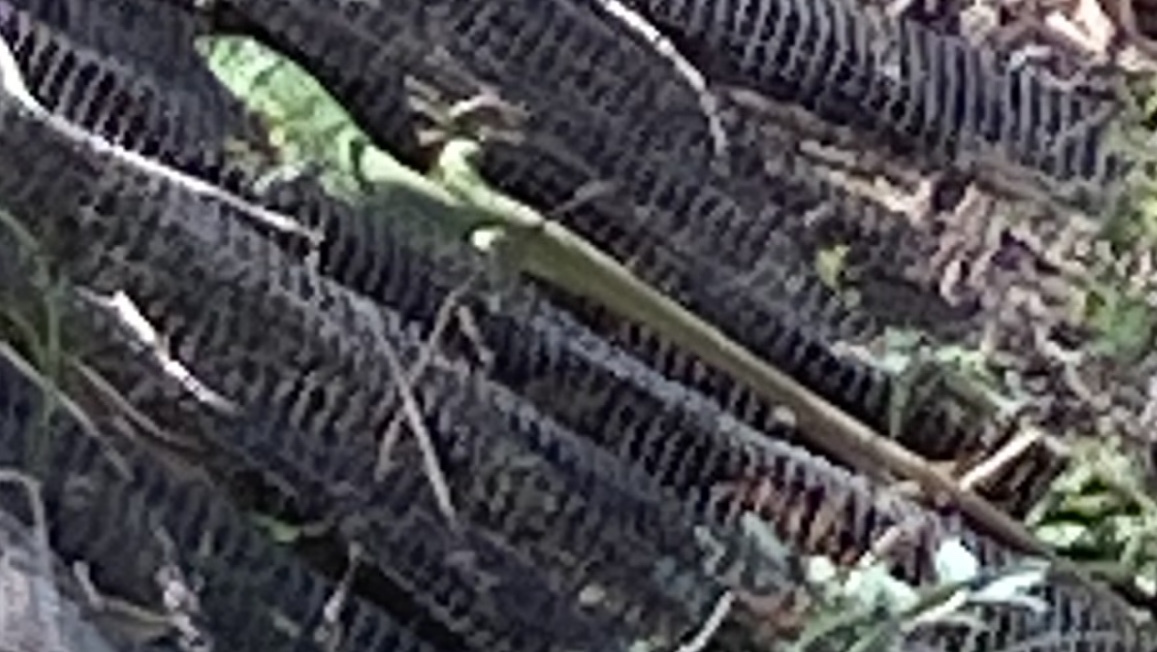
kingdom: Animalia
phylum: Chordata
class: Squamata
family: Lacertidae
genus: Lacerta
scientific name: Lacerta trilineata
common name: Balkan green lizard
